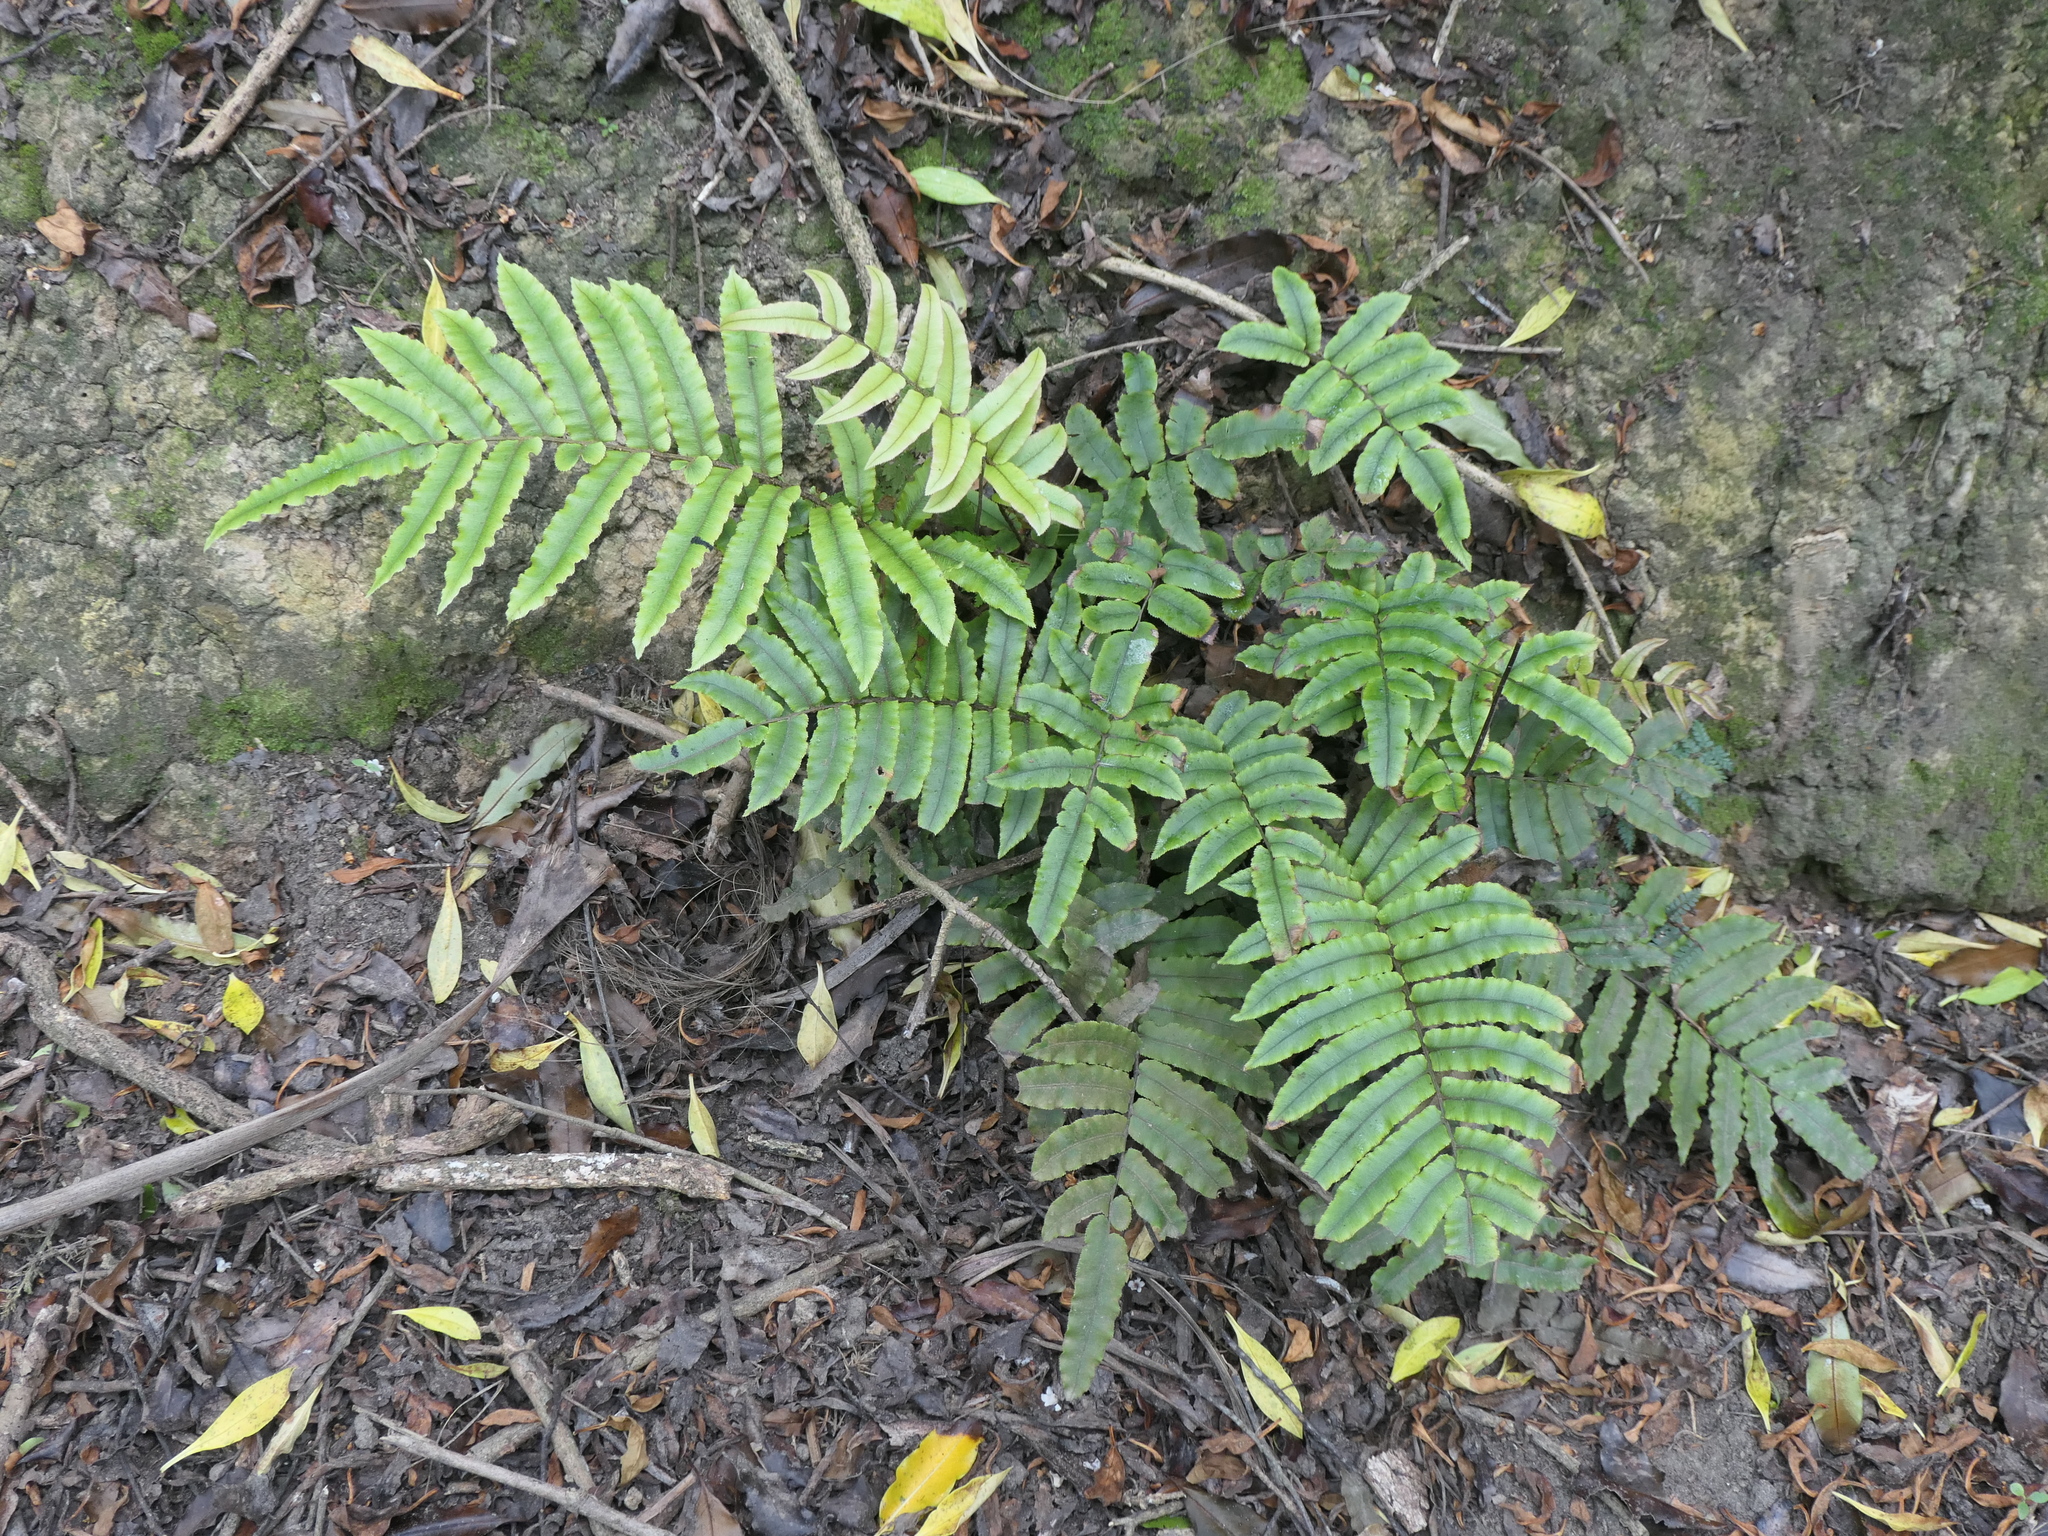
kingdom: Plantae
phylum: Tracheophyta
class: Polypodiopsida
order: Polypodiales
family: Blechnaceae
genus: Parablechnum
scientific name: Parablechnum procerum
